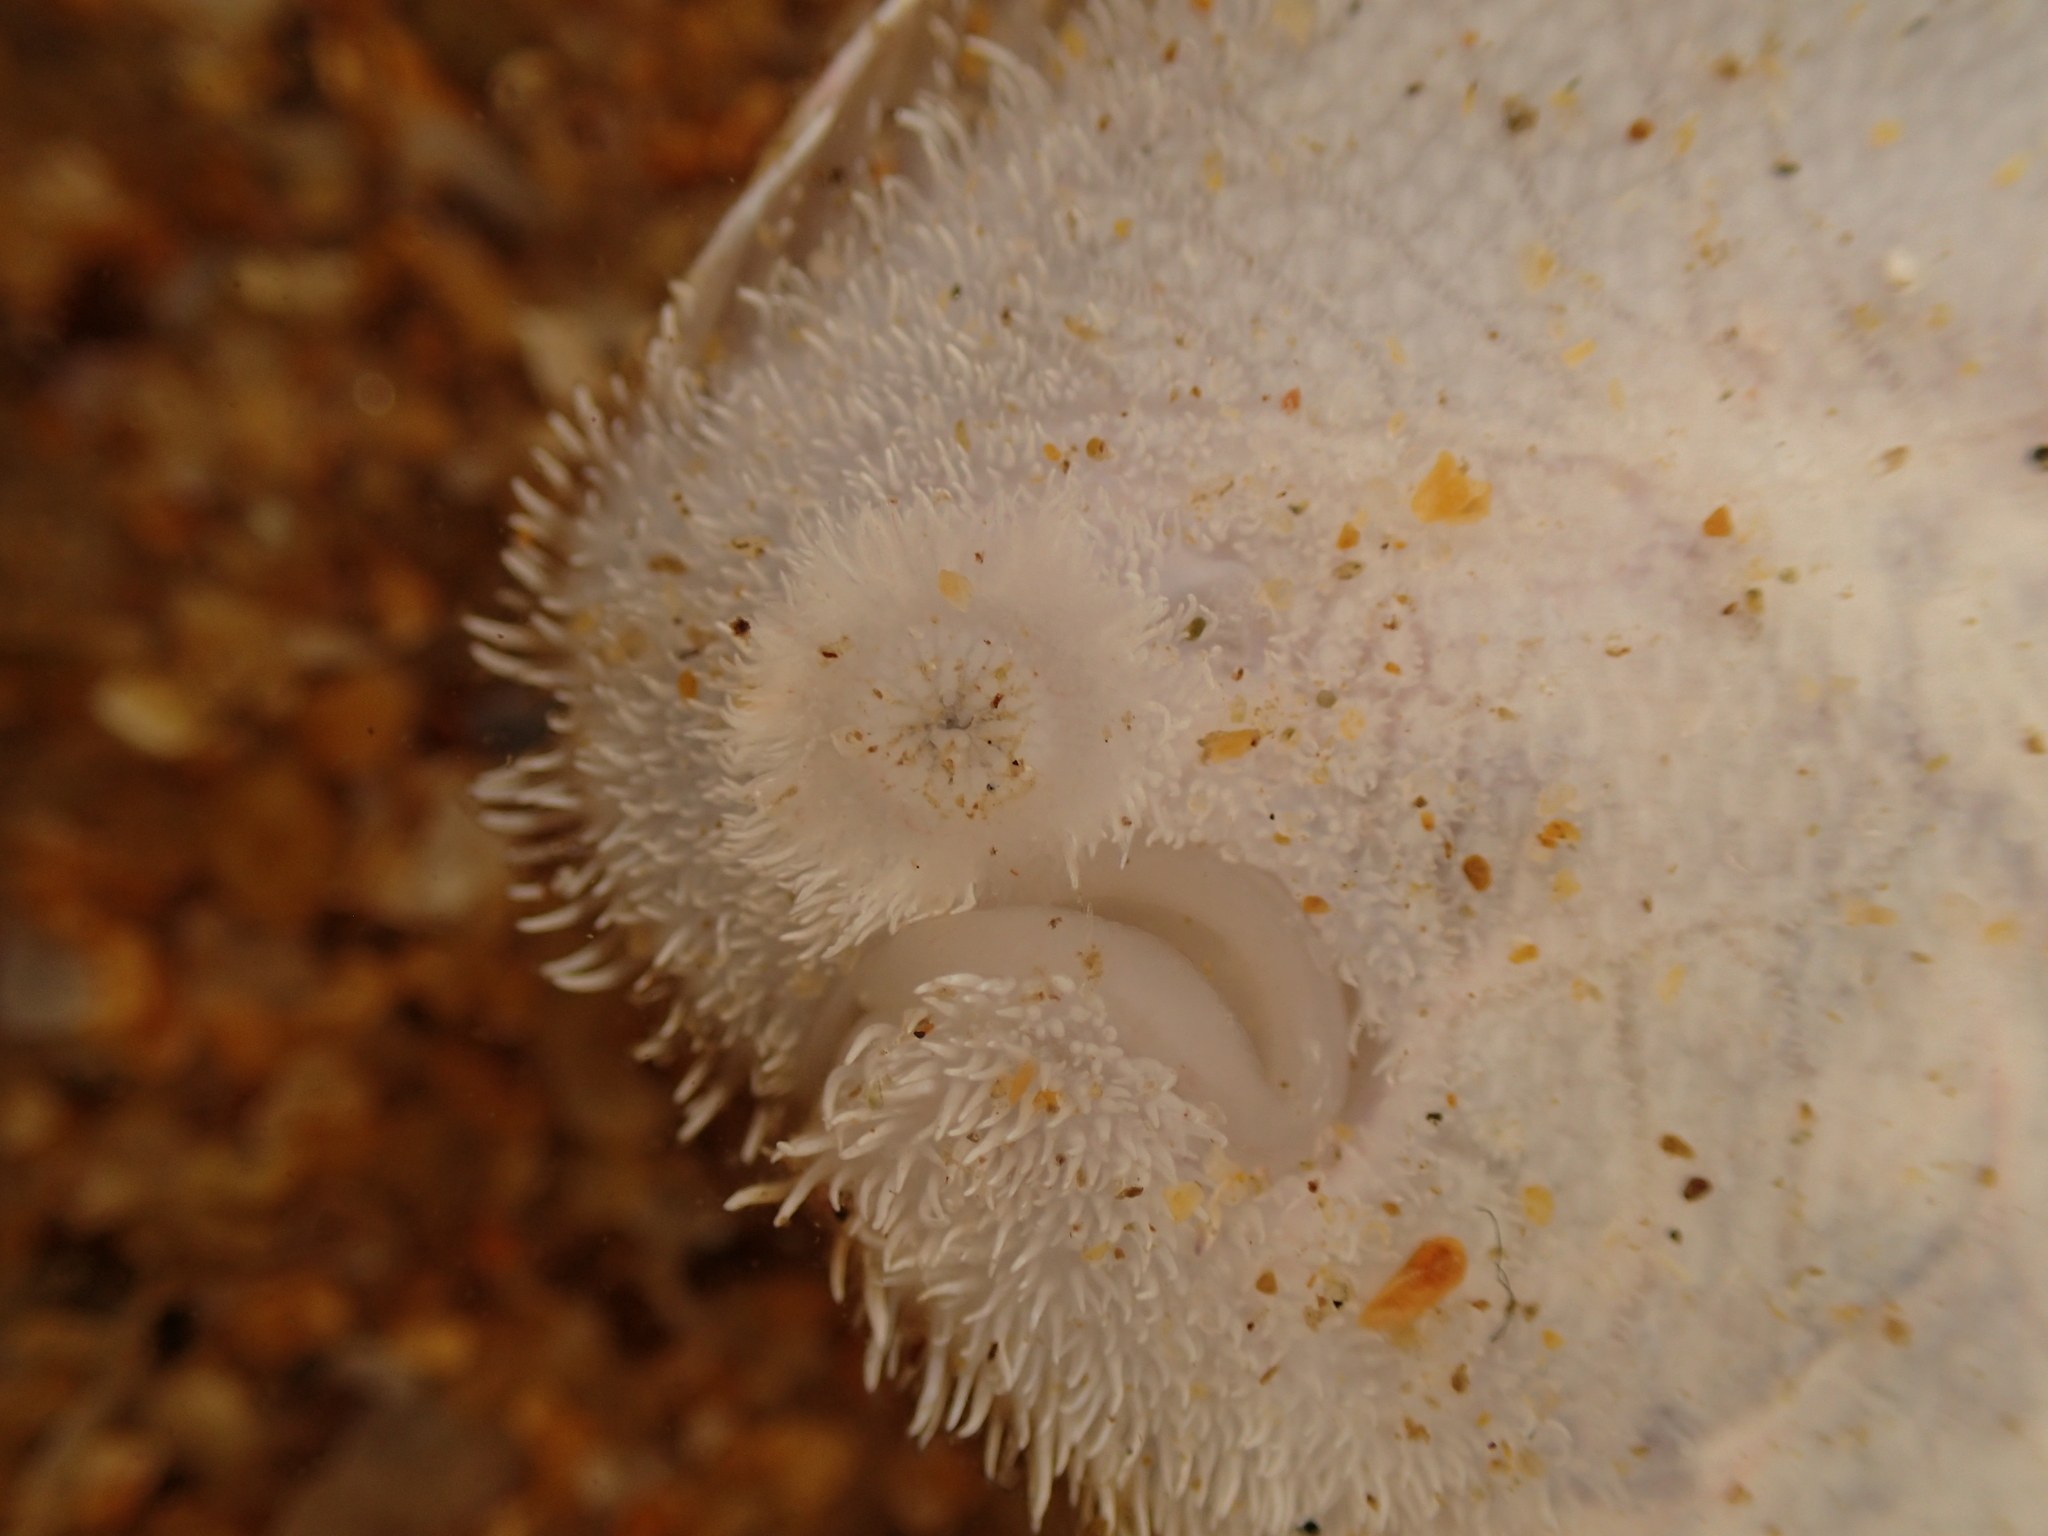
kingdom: Animalia
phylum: Chordata
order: Pleuronectiformes
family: Soleidae
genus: Pegusa
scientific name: Pegusa lascaris
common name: Sand sole
